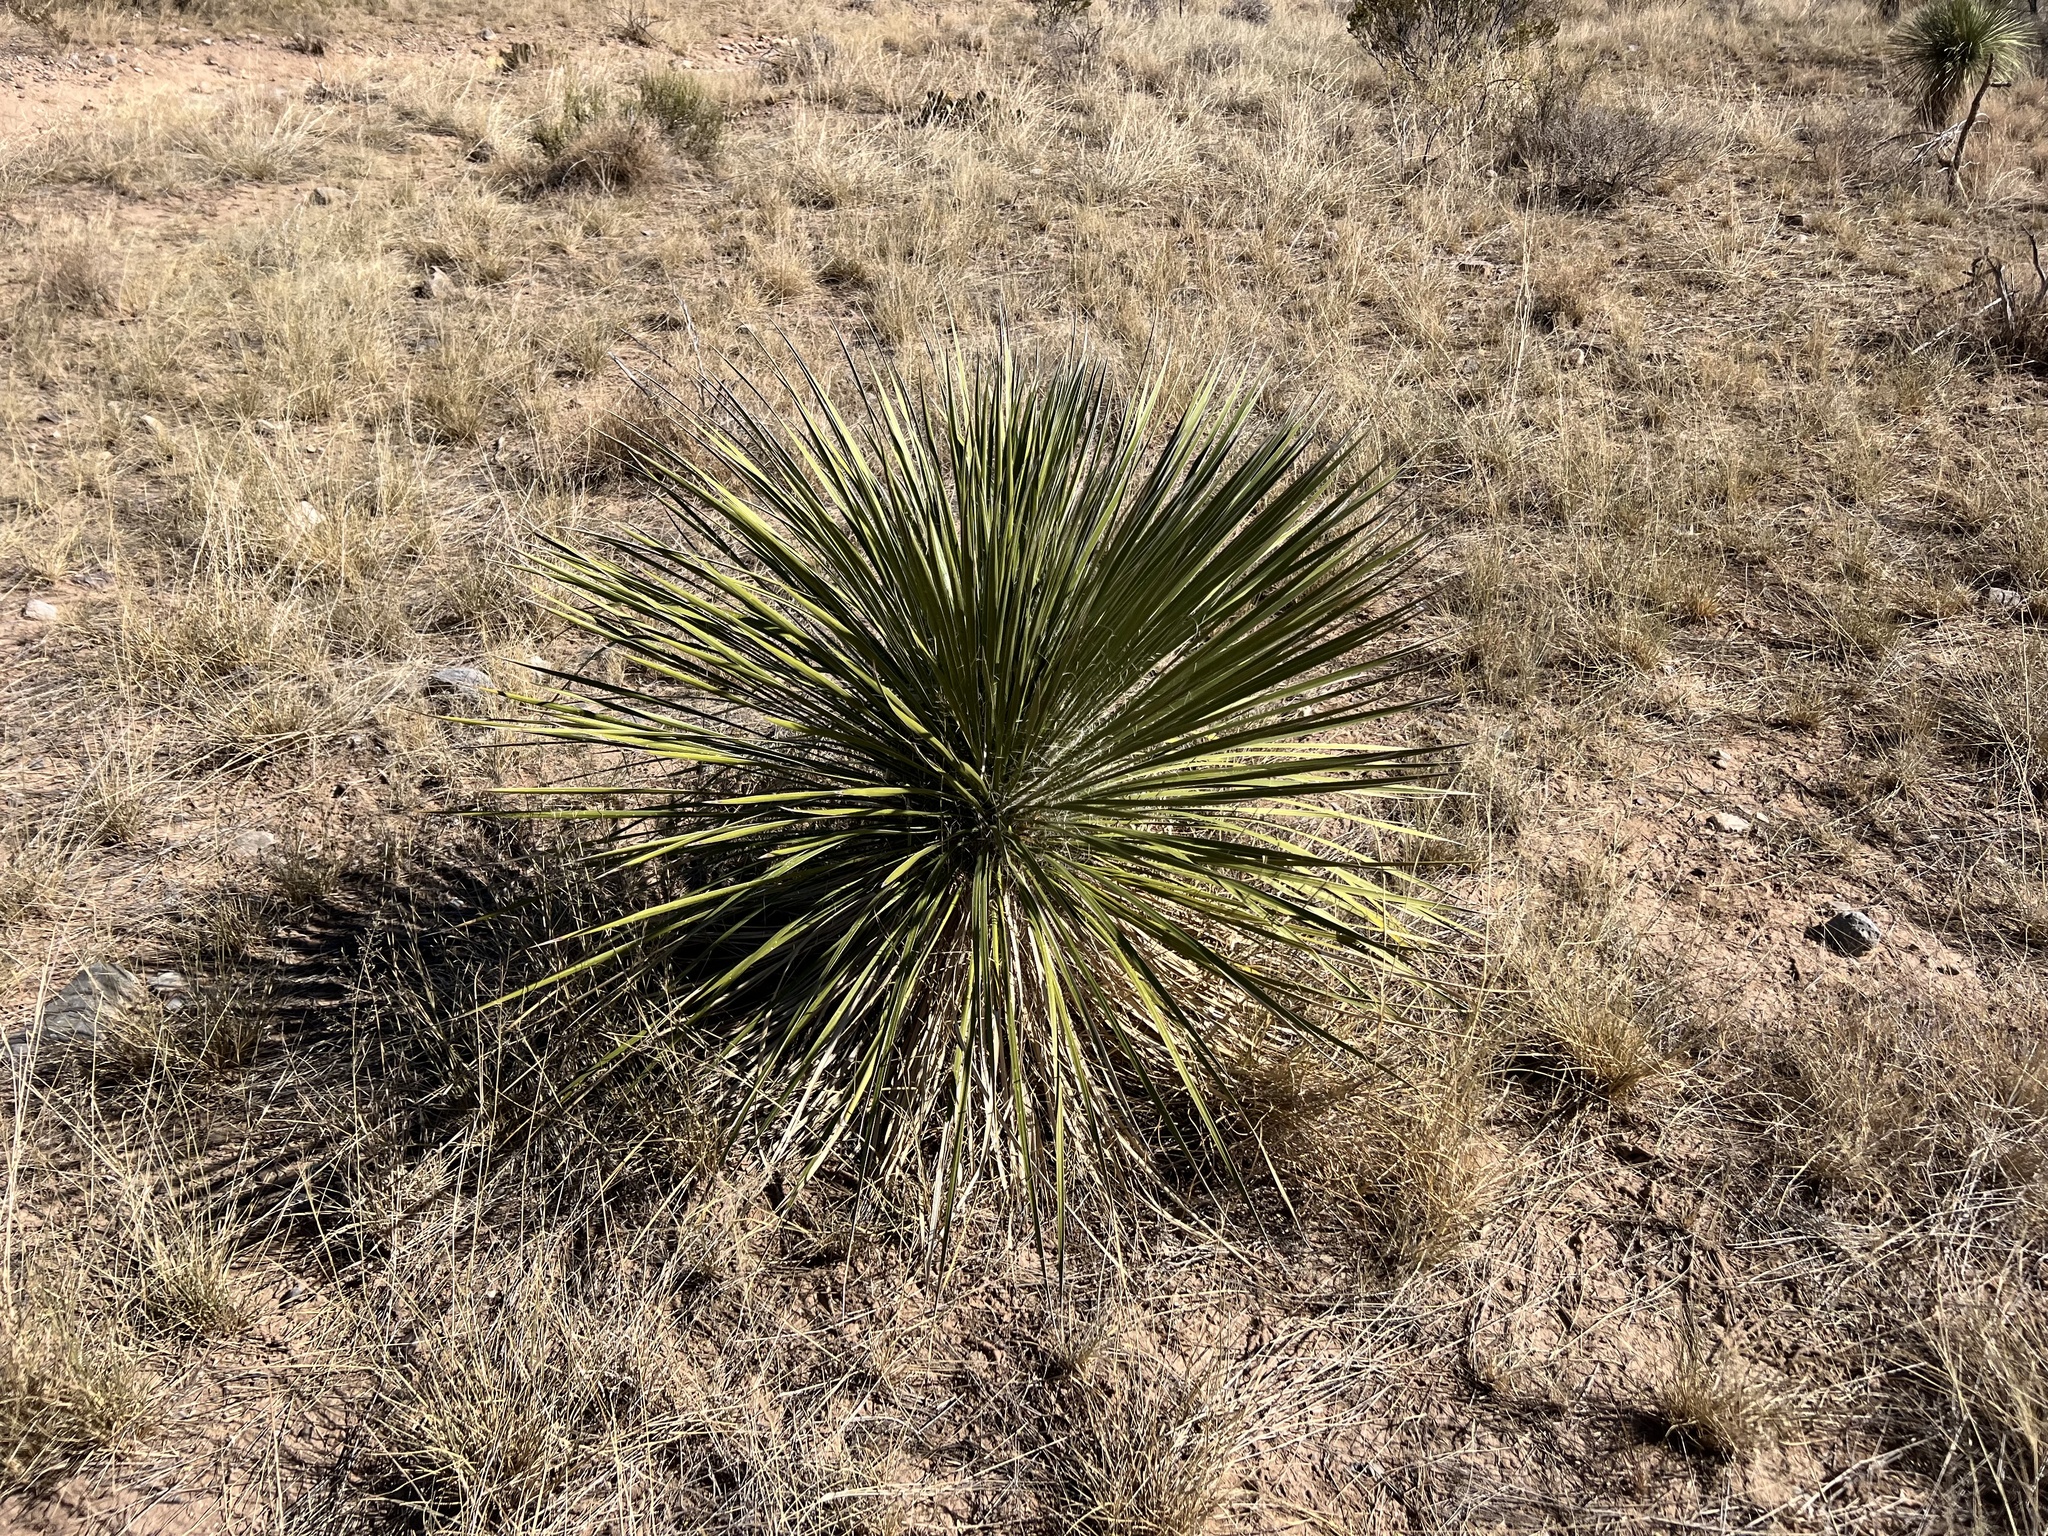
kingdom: Plantae
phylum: Tracheophyta
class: Liliopsida
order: Asparagales
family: Asparagaceae
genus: Yucca
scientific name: Yucca elata
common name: Palmella
